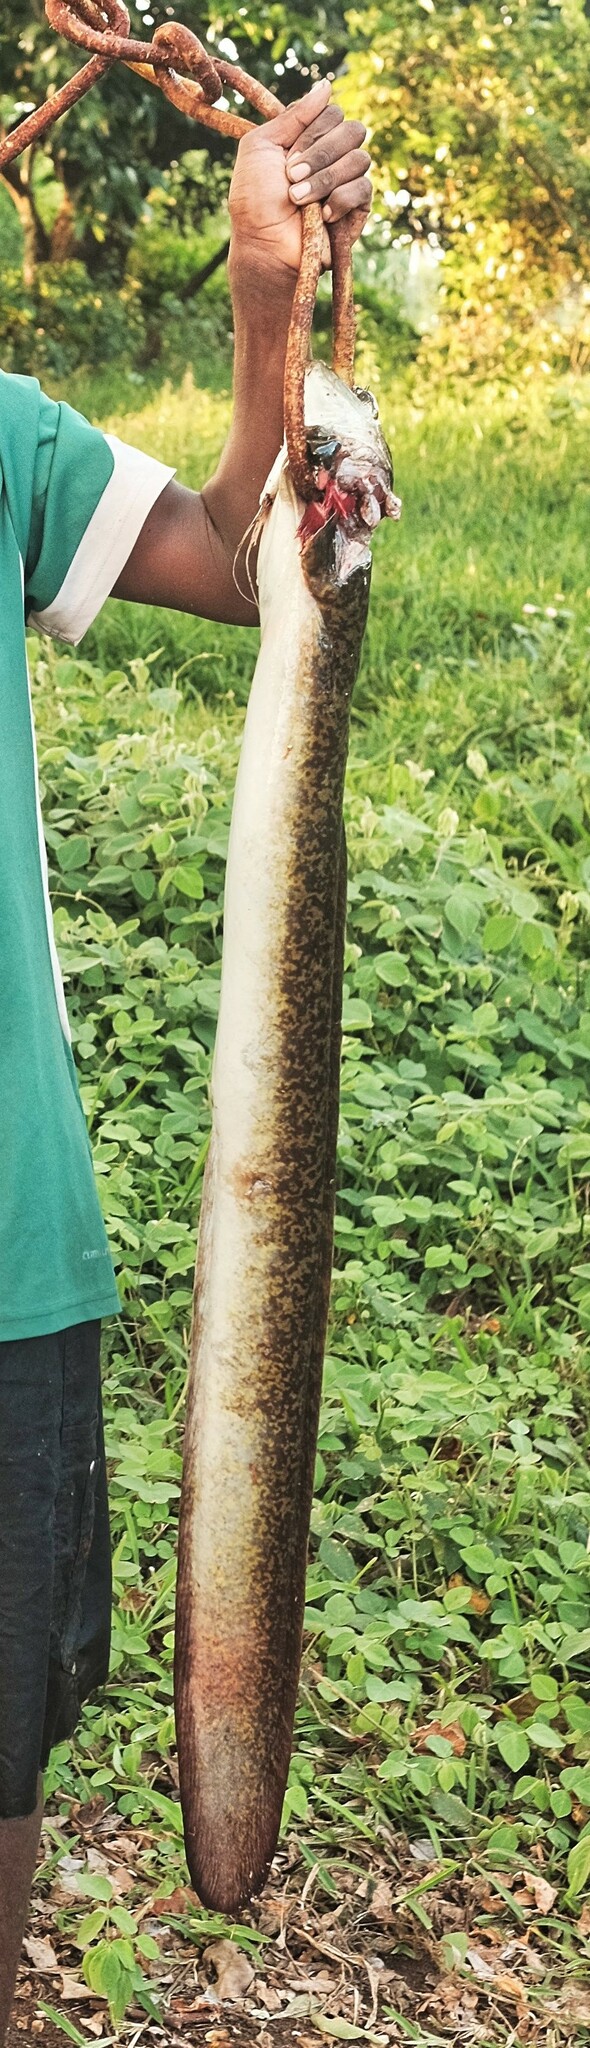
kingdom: Animalia
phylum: Chordata
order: Anguilliformes
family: Anguillidae
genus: Anguilla
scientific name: Anguilla marmorata
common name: Giant mottled eel
